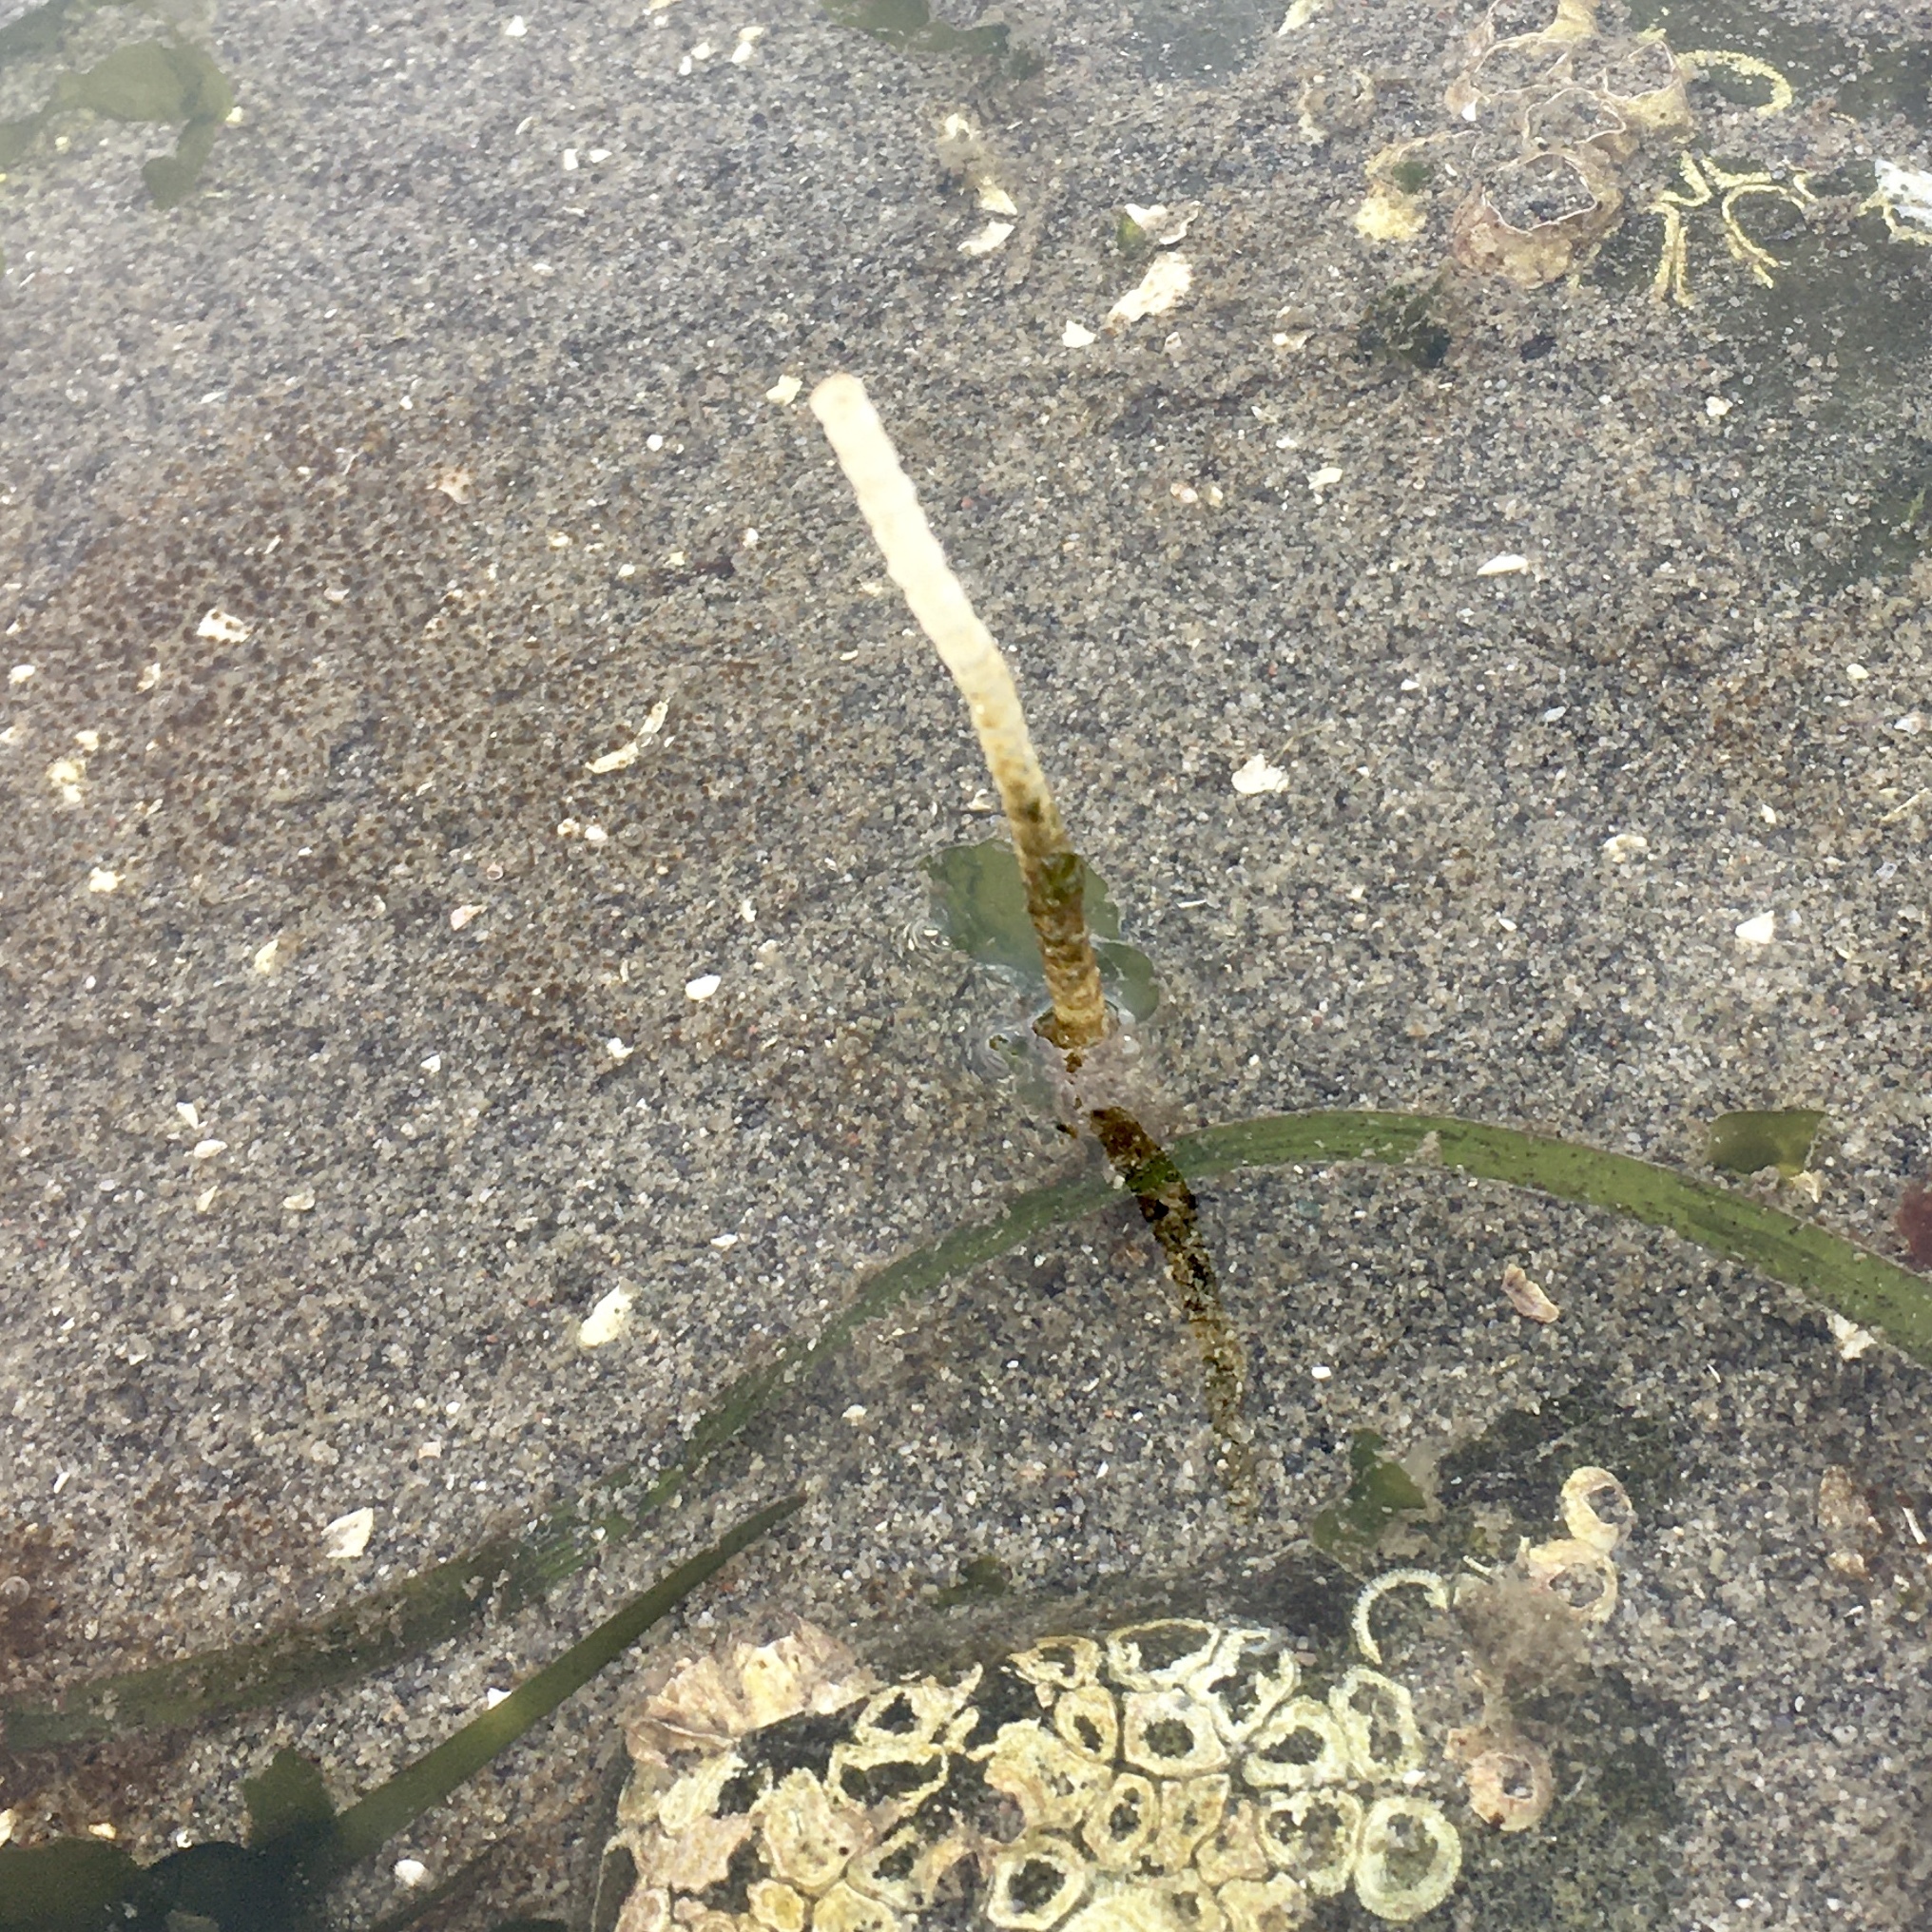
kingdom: Animalia
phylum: Annelida
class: Polychaeta
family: Chaetopteridae
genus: Spiochaetopterus
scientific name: Spiochaetopterus costarum
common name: Glassy tubeworm
